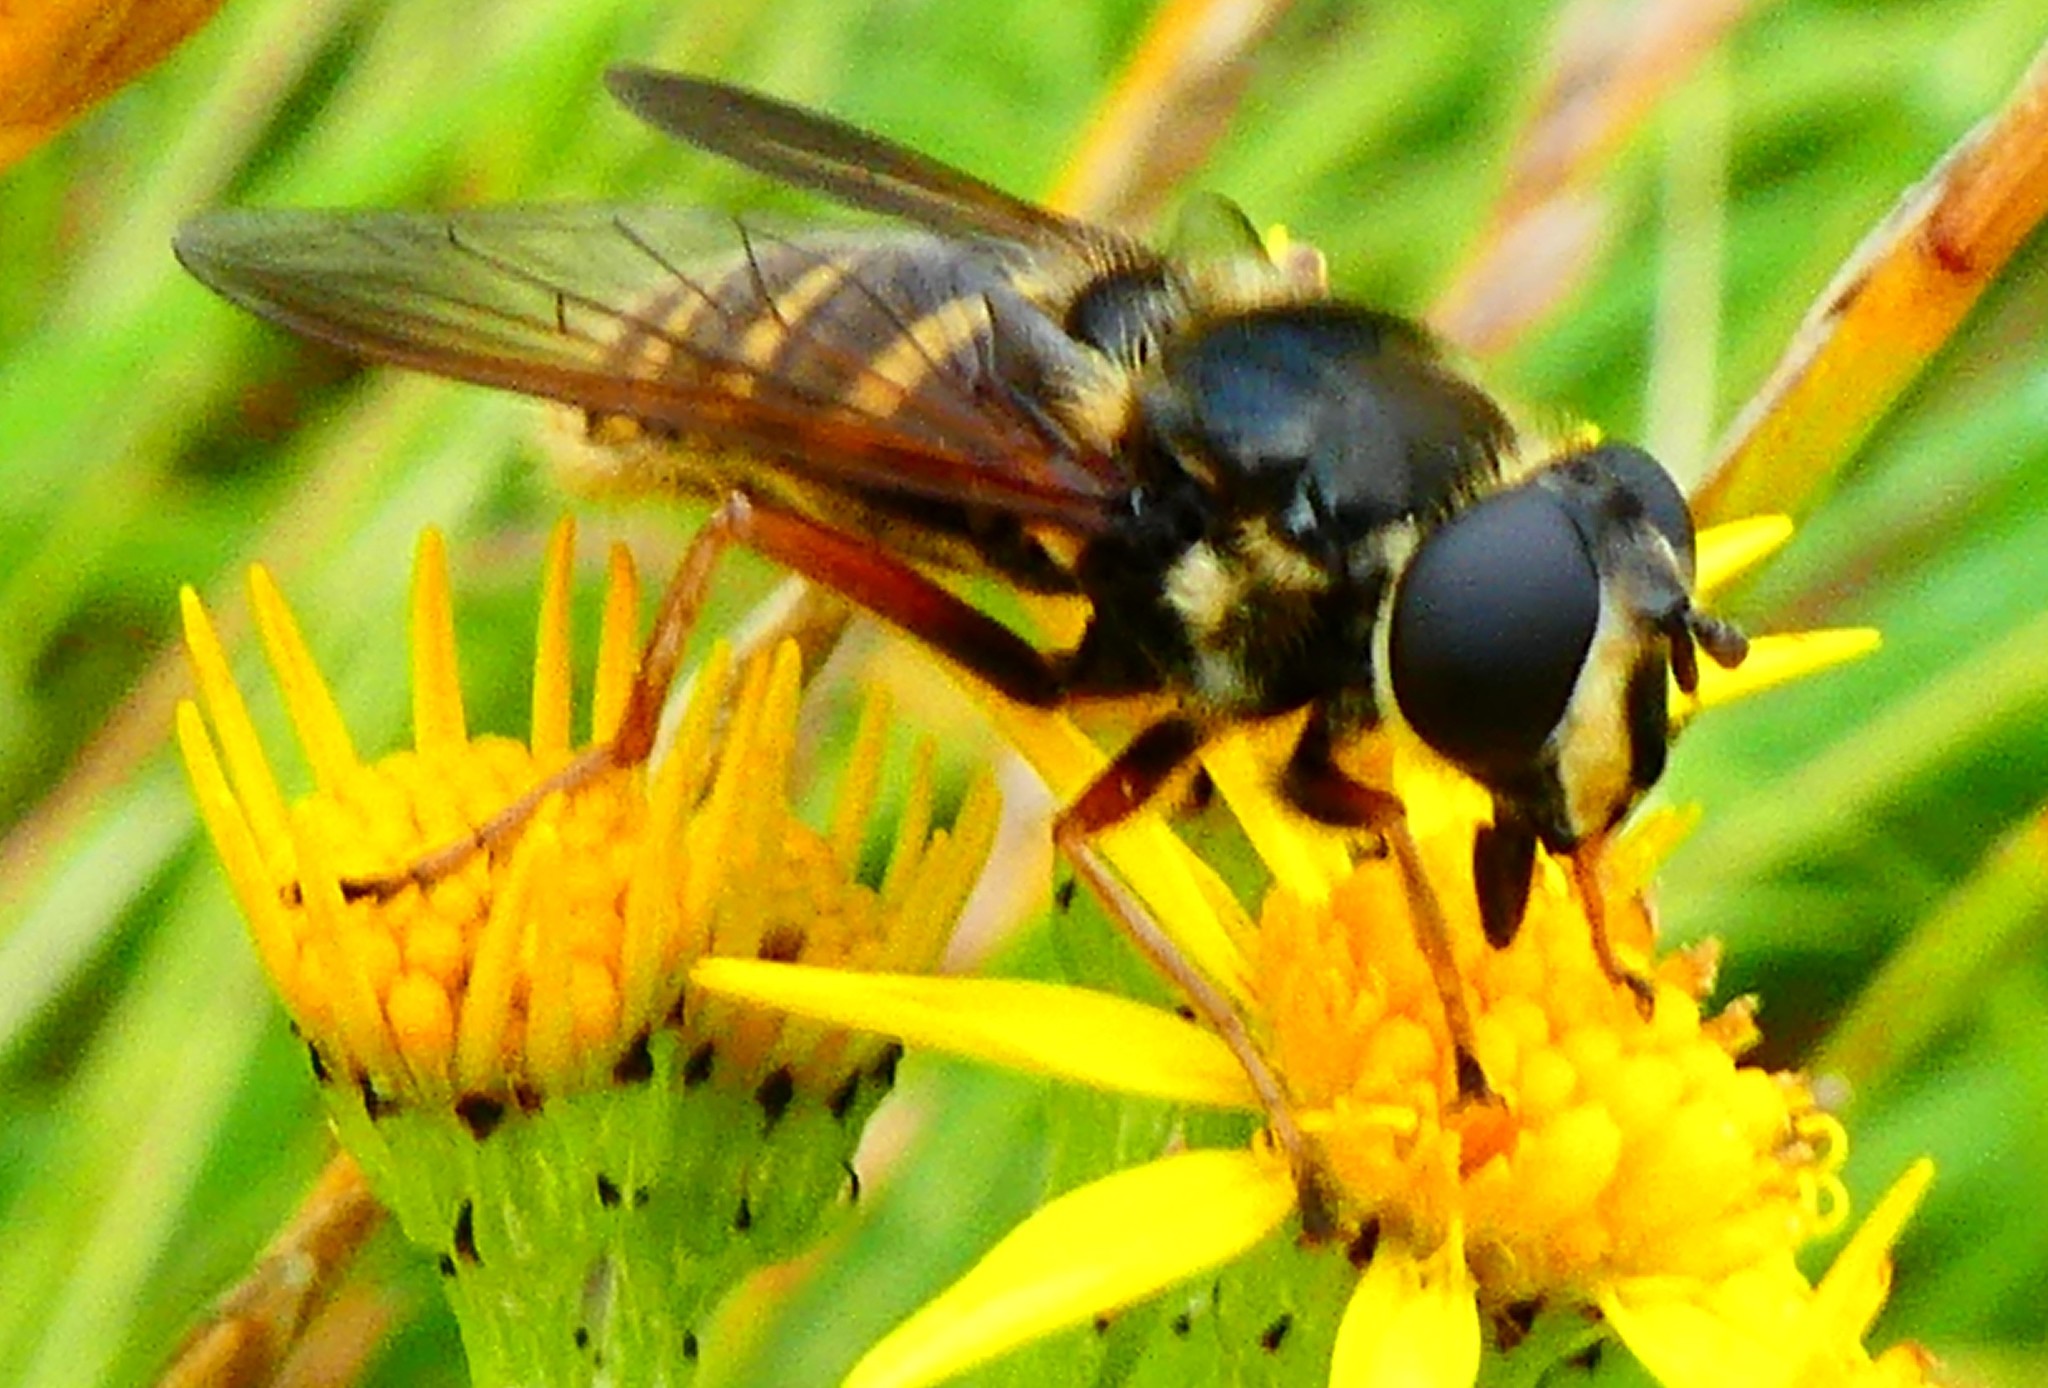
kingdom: Animalia
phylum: Arthropoda
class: Insecta
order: Diptera
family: Syrphidae
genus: Sericomyia
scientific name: Sericomyia silentis
